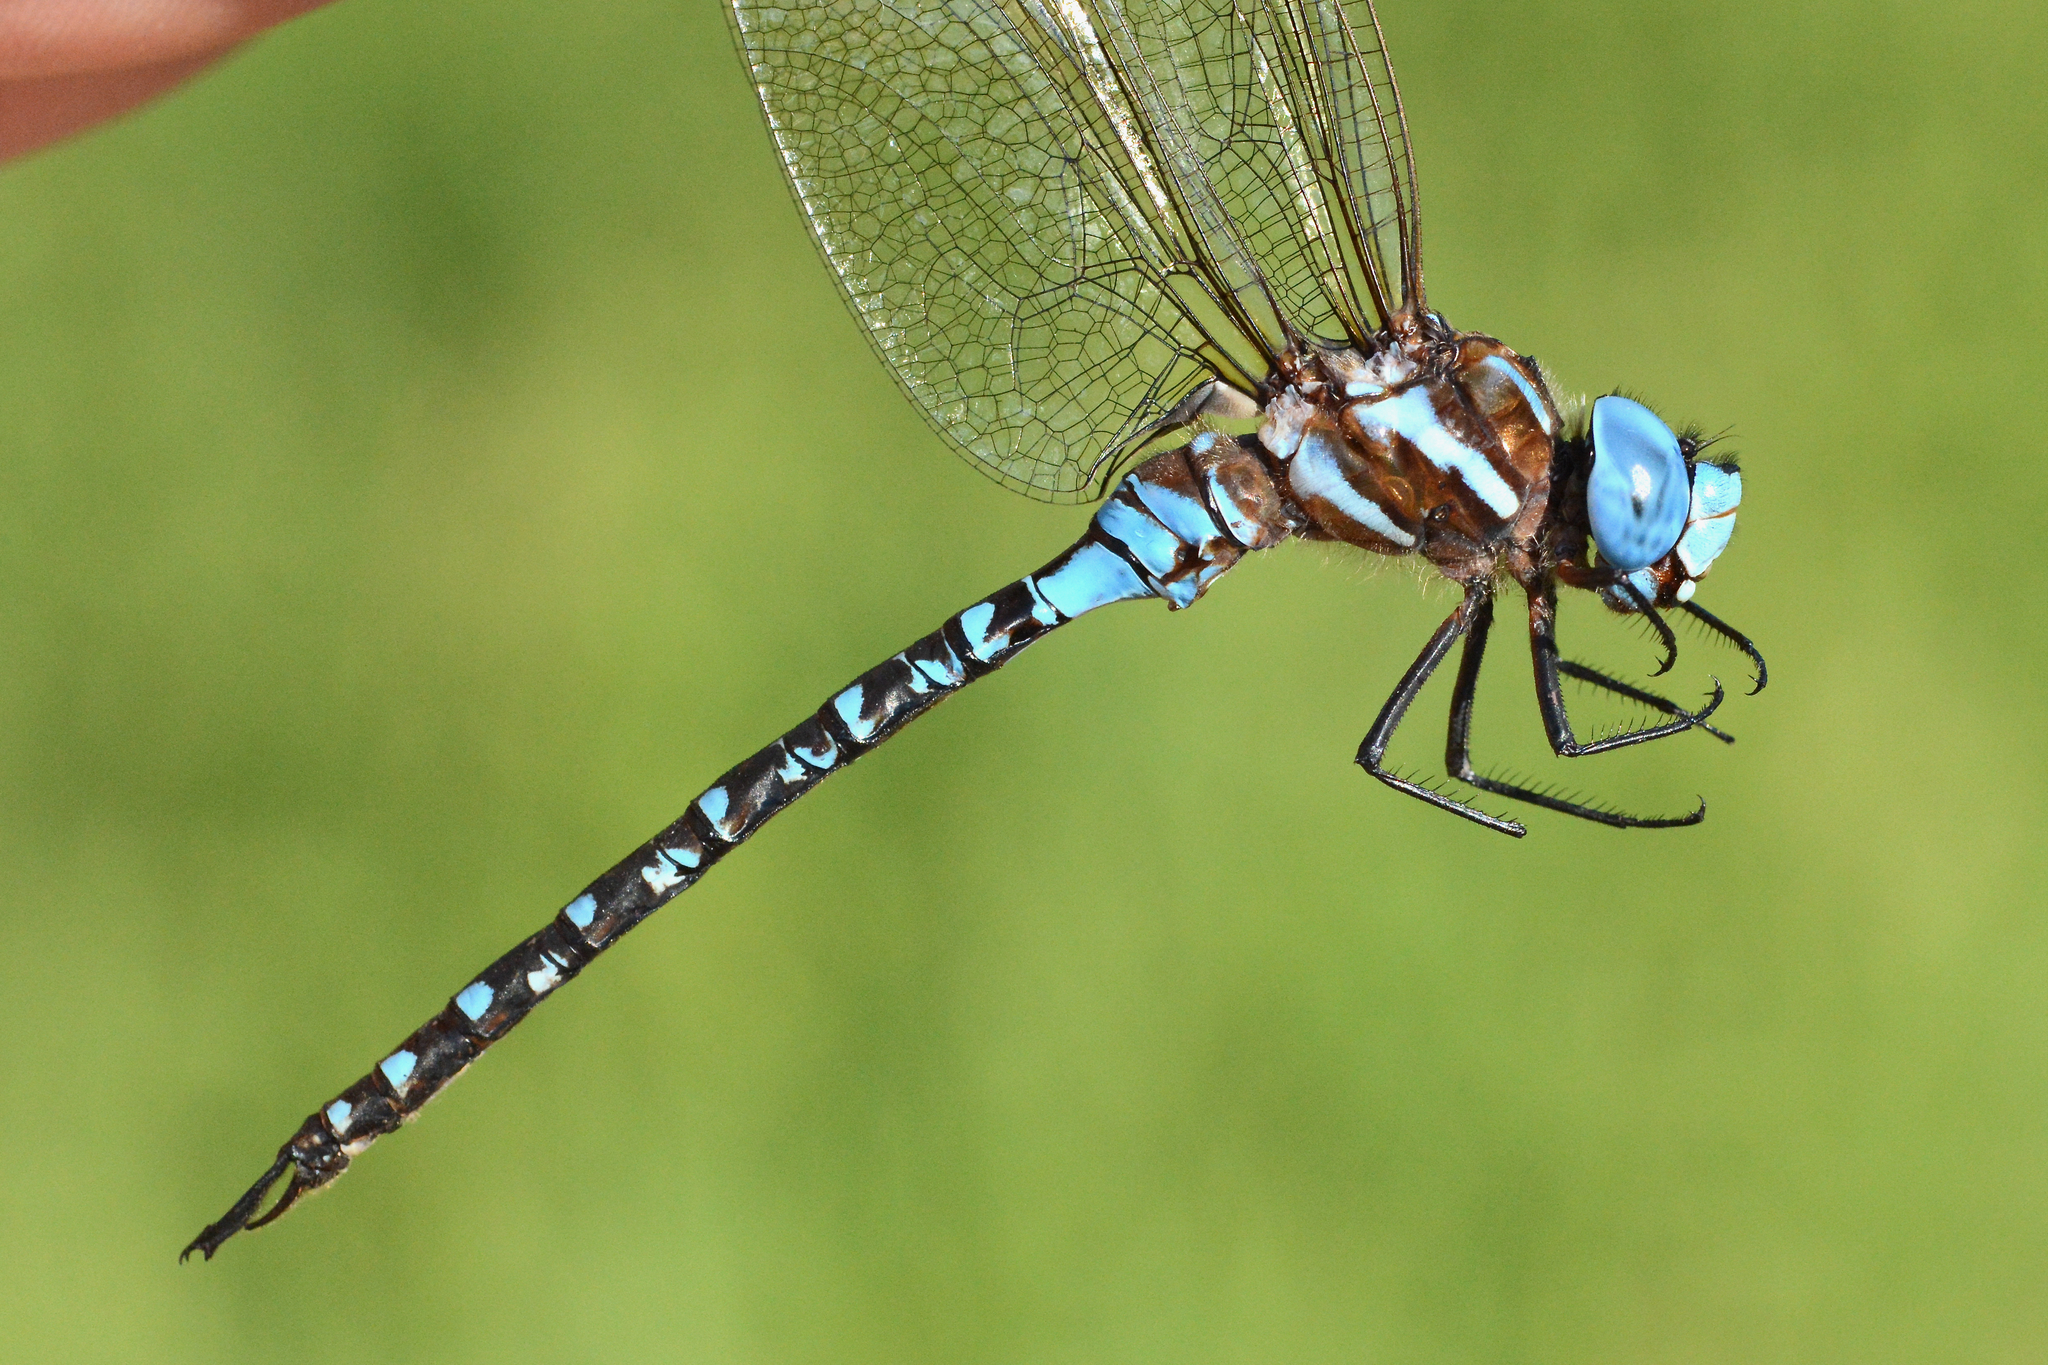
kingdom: Animalia
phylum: Arthropoda
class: Insecta
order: Odonata
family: Aeshnidae
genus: Rhionaeschna
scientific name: Rhionaeschna mutata
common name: Spatterdock darner
